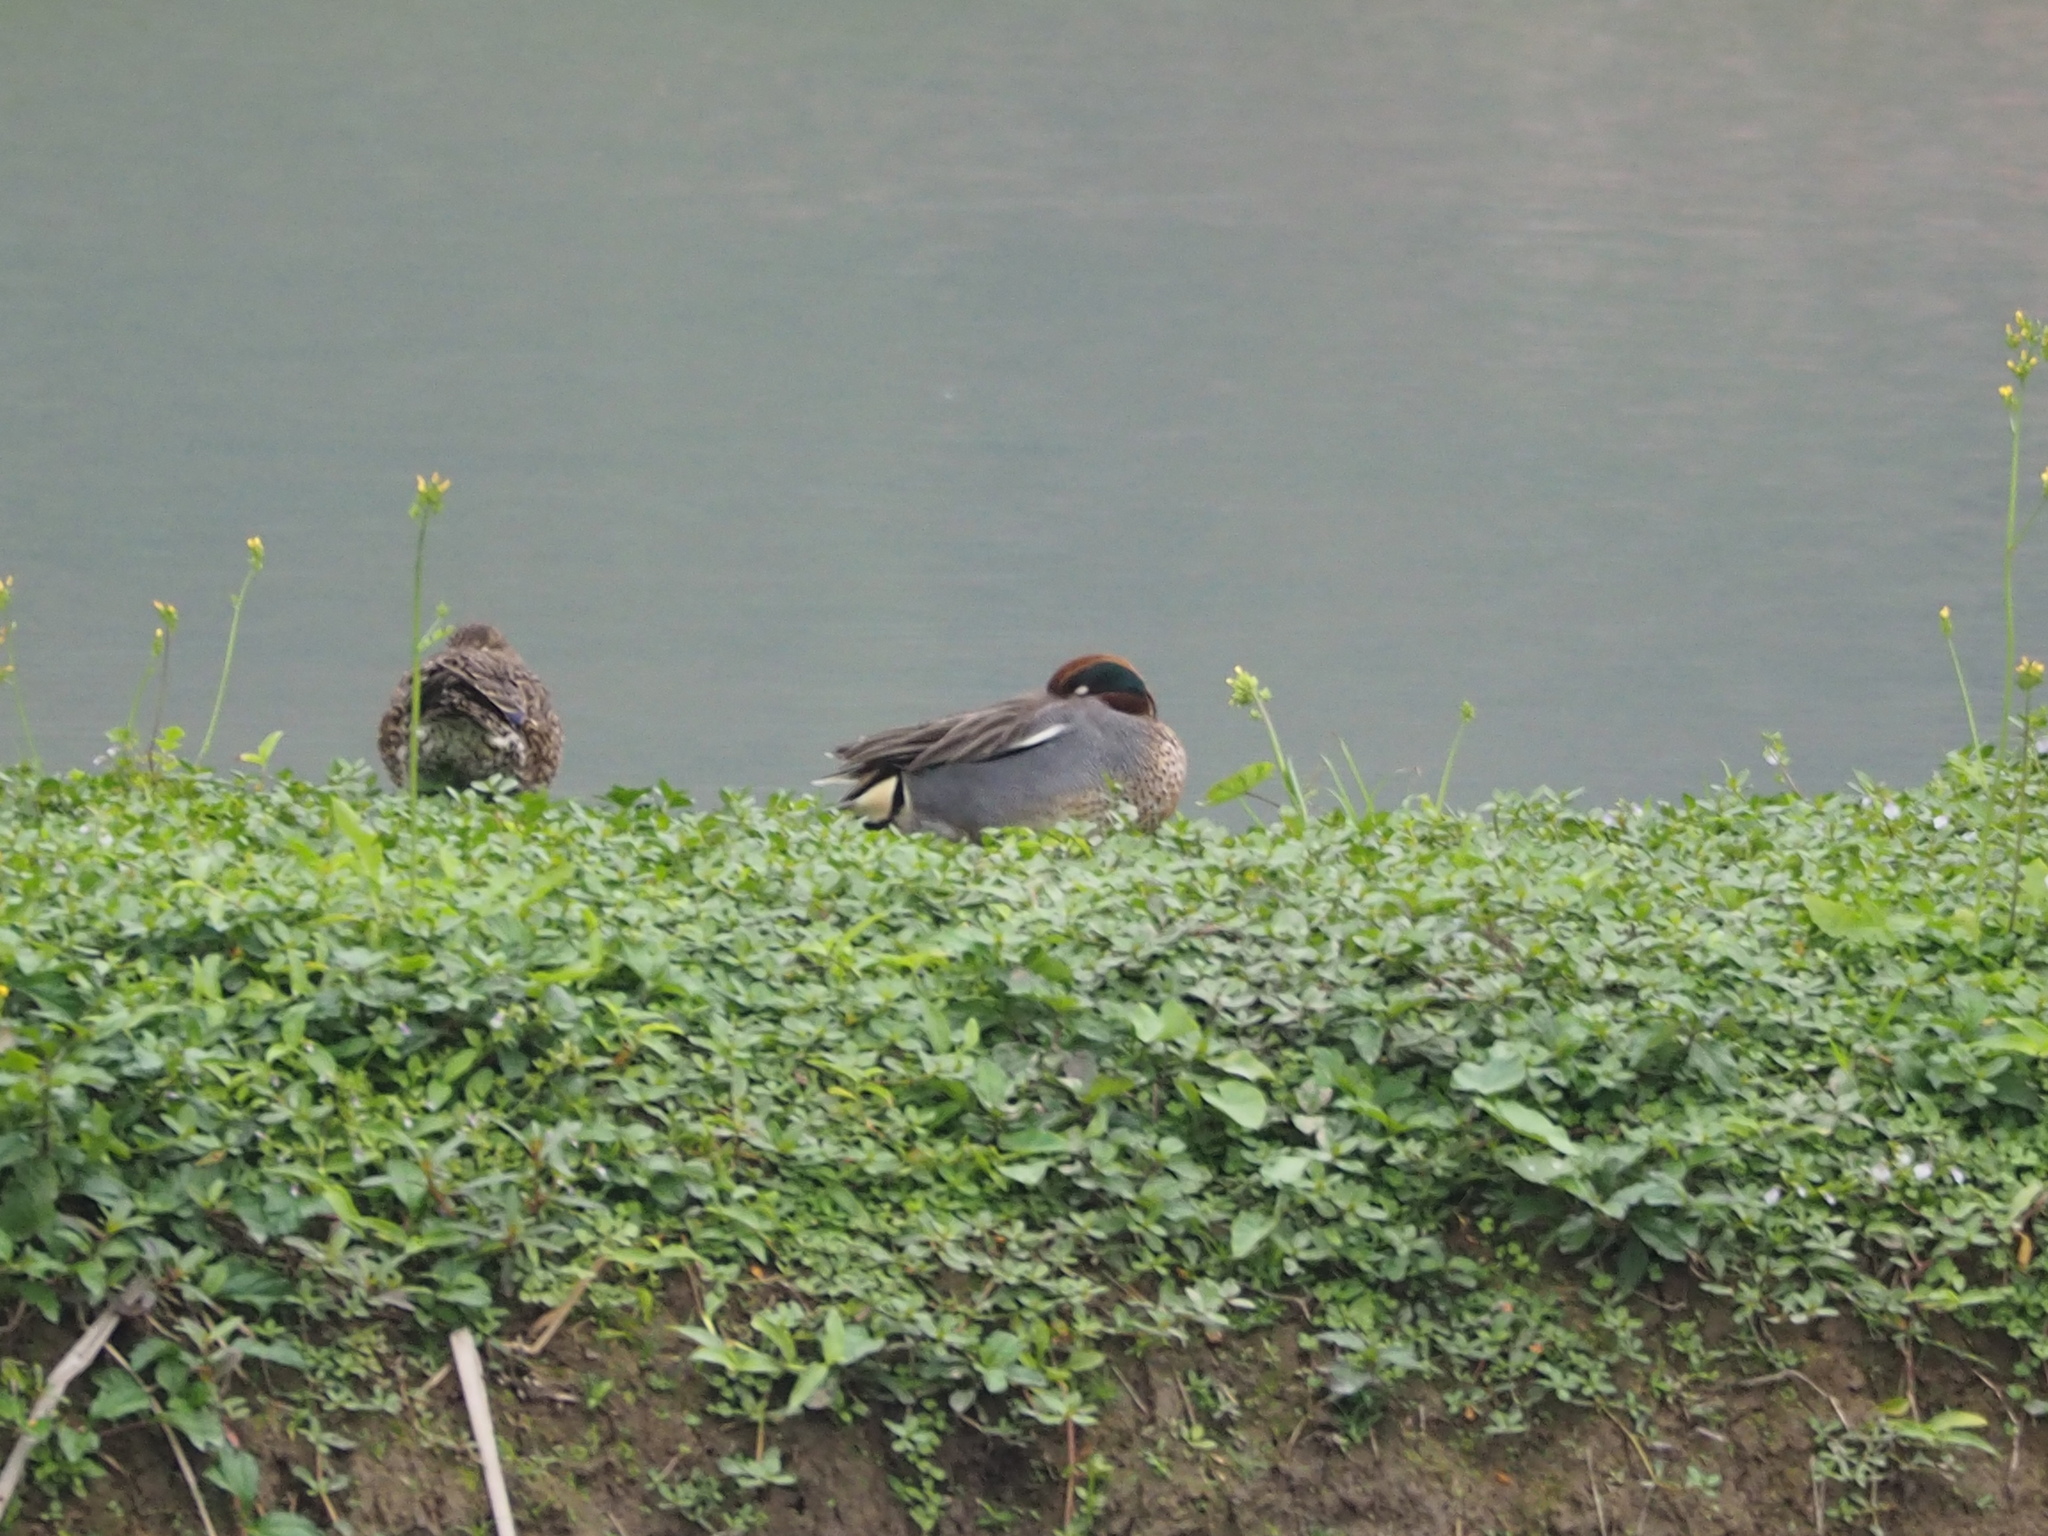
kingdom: Animalia
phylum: Chordata
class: Aves
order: Anseriformes
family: Anatidae
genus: Anas
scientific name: Anas crecca
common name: Eurasian teal
